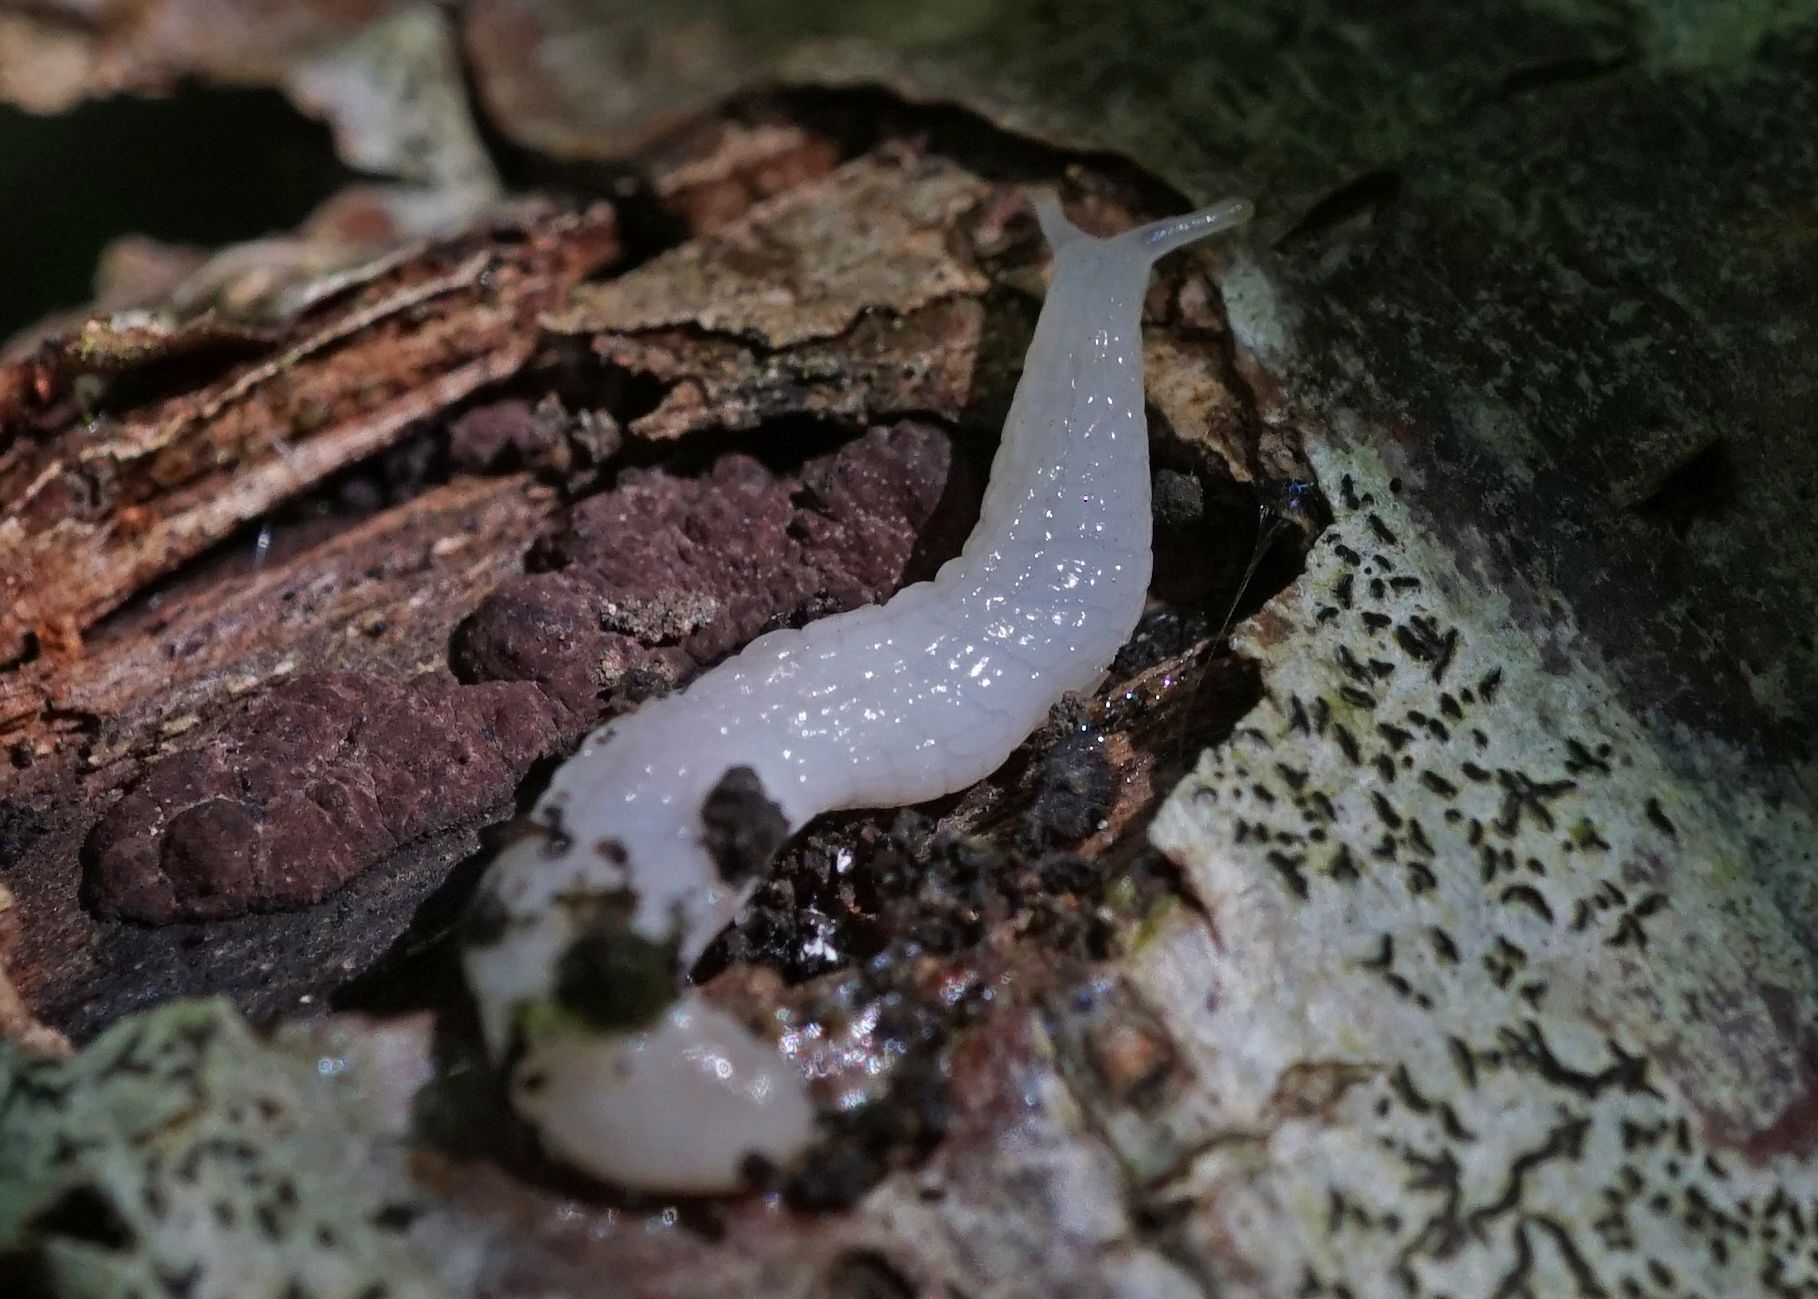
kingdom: Animalia
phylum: Mollusca
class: Gastropoda
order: Stylommatophora
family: Oxychilidae
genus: Selenochlamys
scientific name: Selenochlamys ysbryda
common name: Ghost slug
